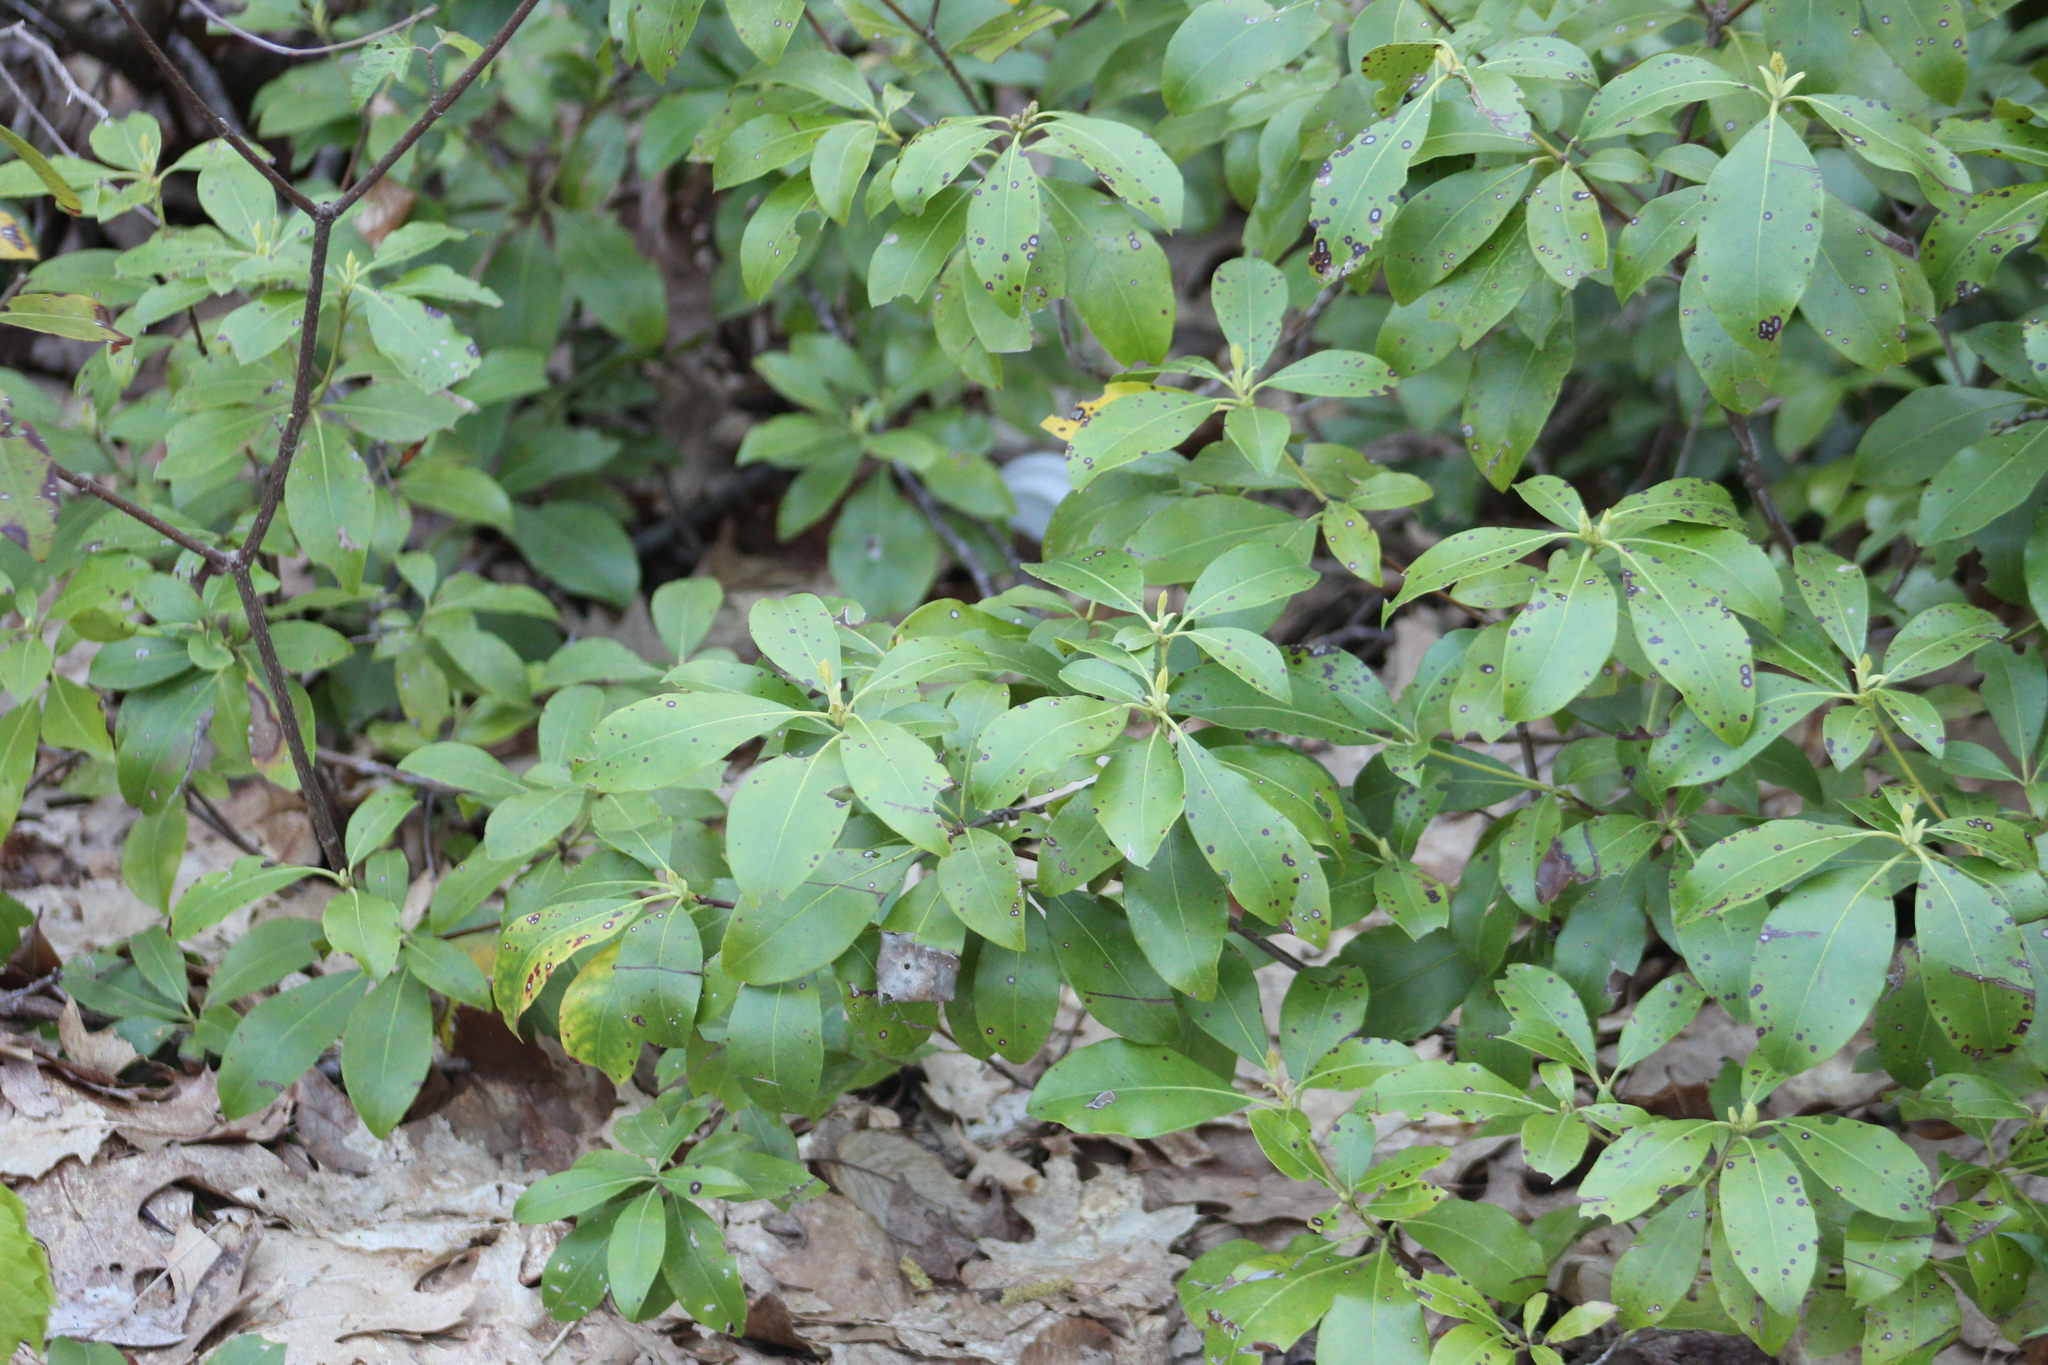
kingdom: Plantae
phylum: Tracheophyta
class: Magnoliopsida
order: Ericales
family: Ericaceae
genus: Kalmia
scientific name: Kalmia latifolia
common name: Mountain-laurel
